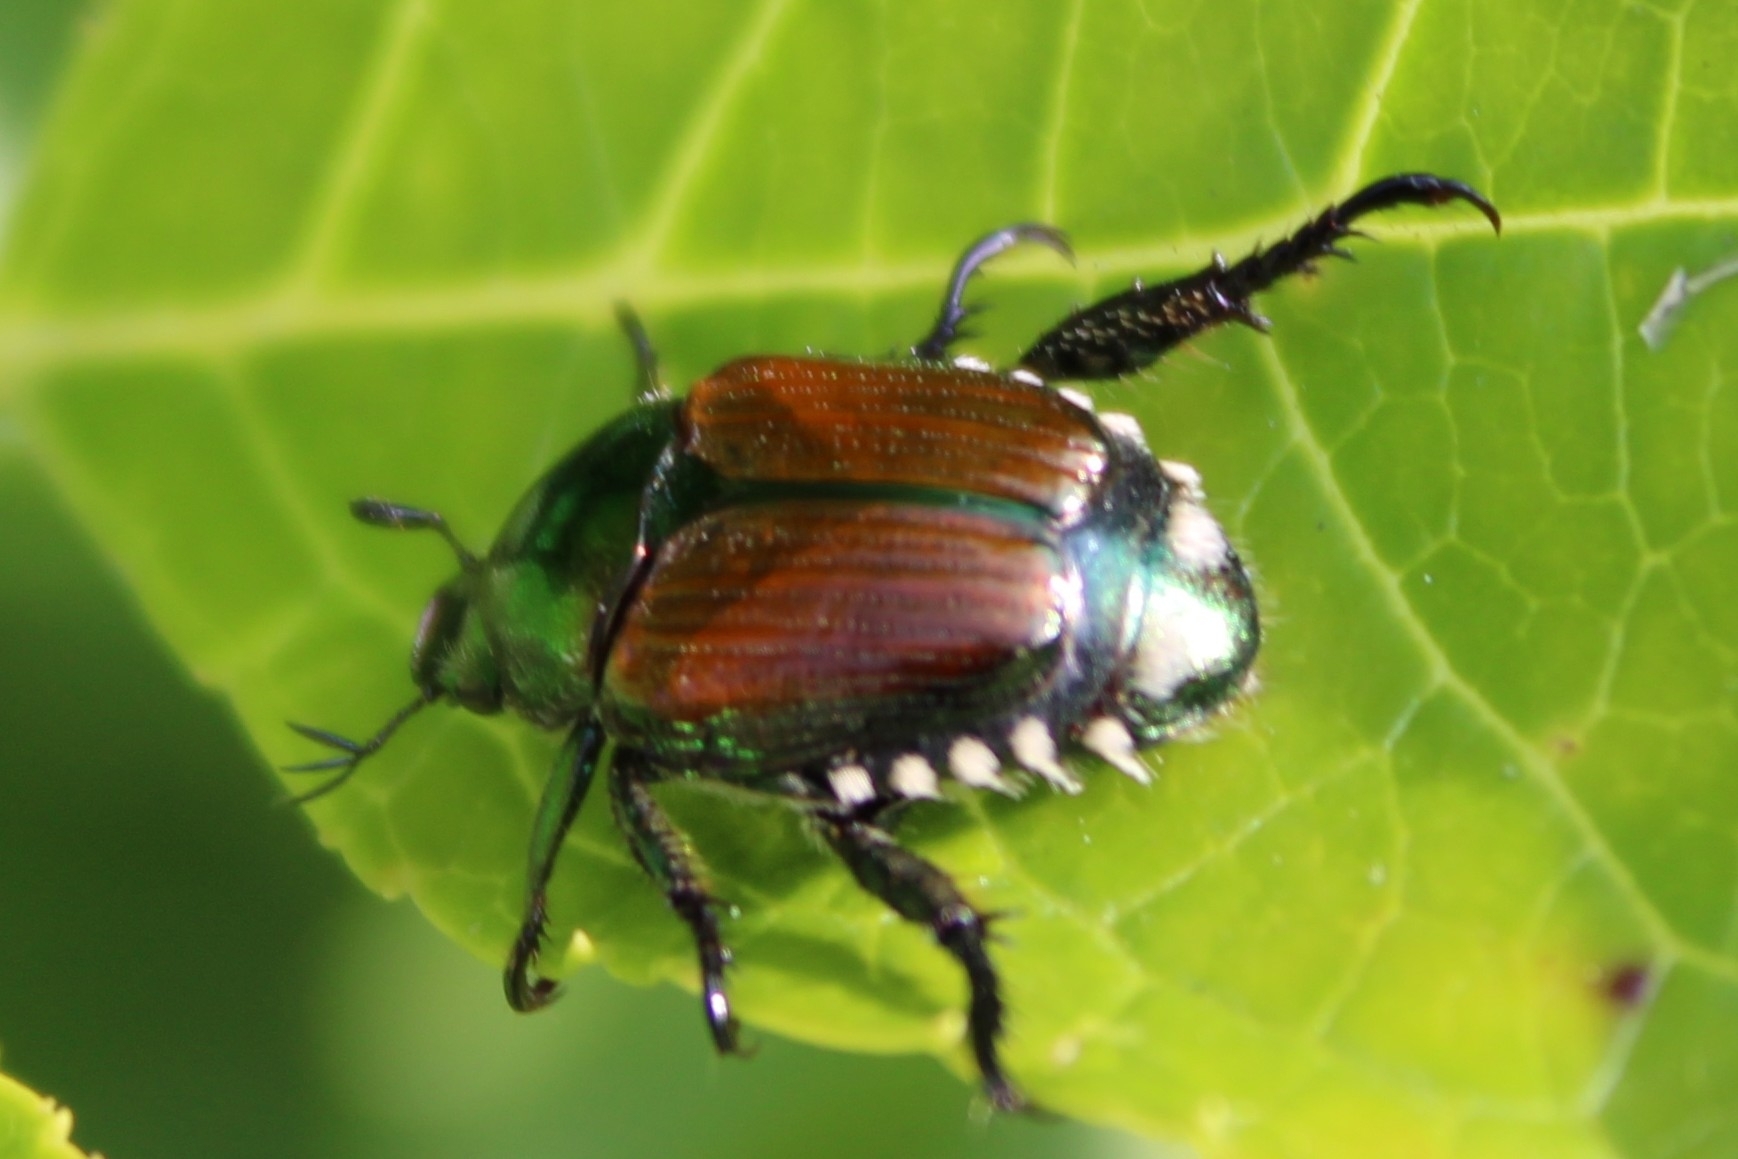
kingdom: Animalia
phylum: Arthropoda
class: Insecta
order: Coleoptera
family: Scarabaeidae
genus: Popillia
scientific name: Popillia japonica
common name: Japanese beetle
